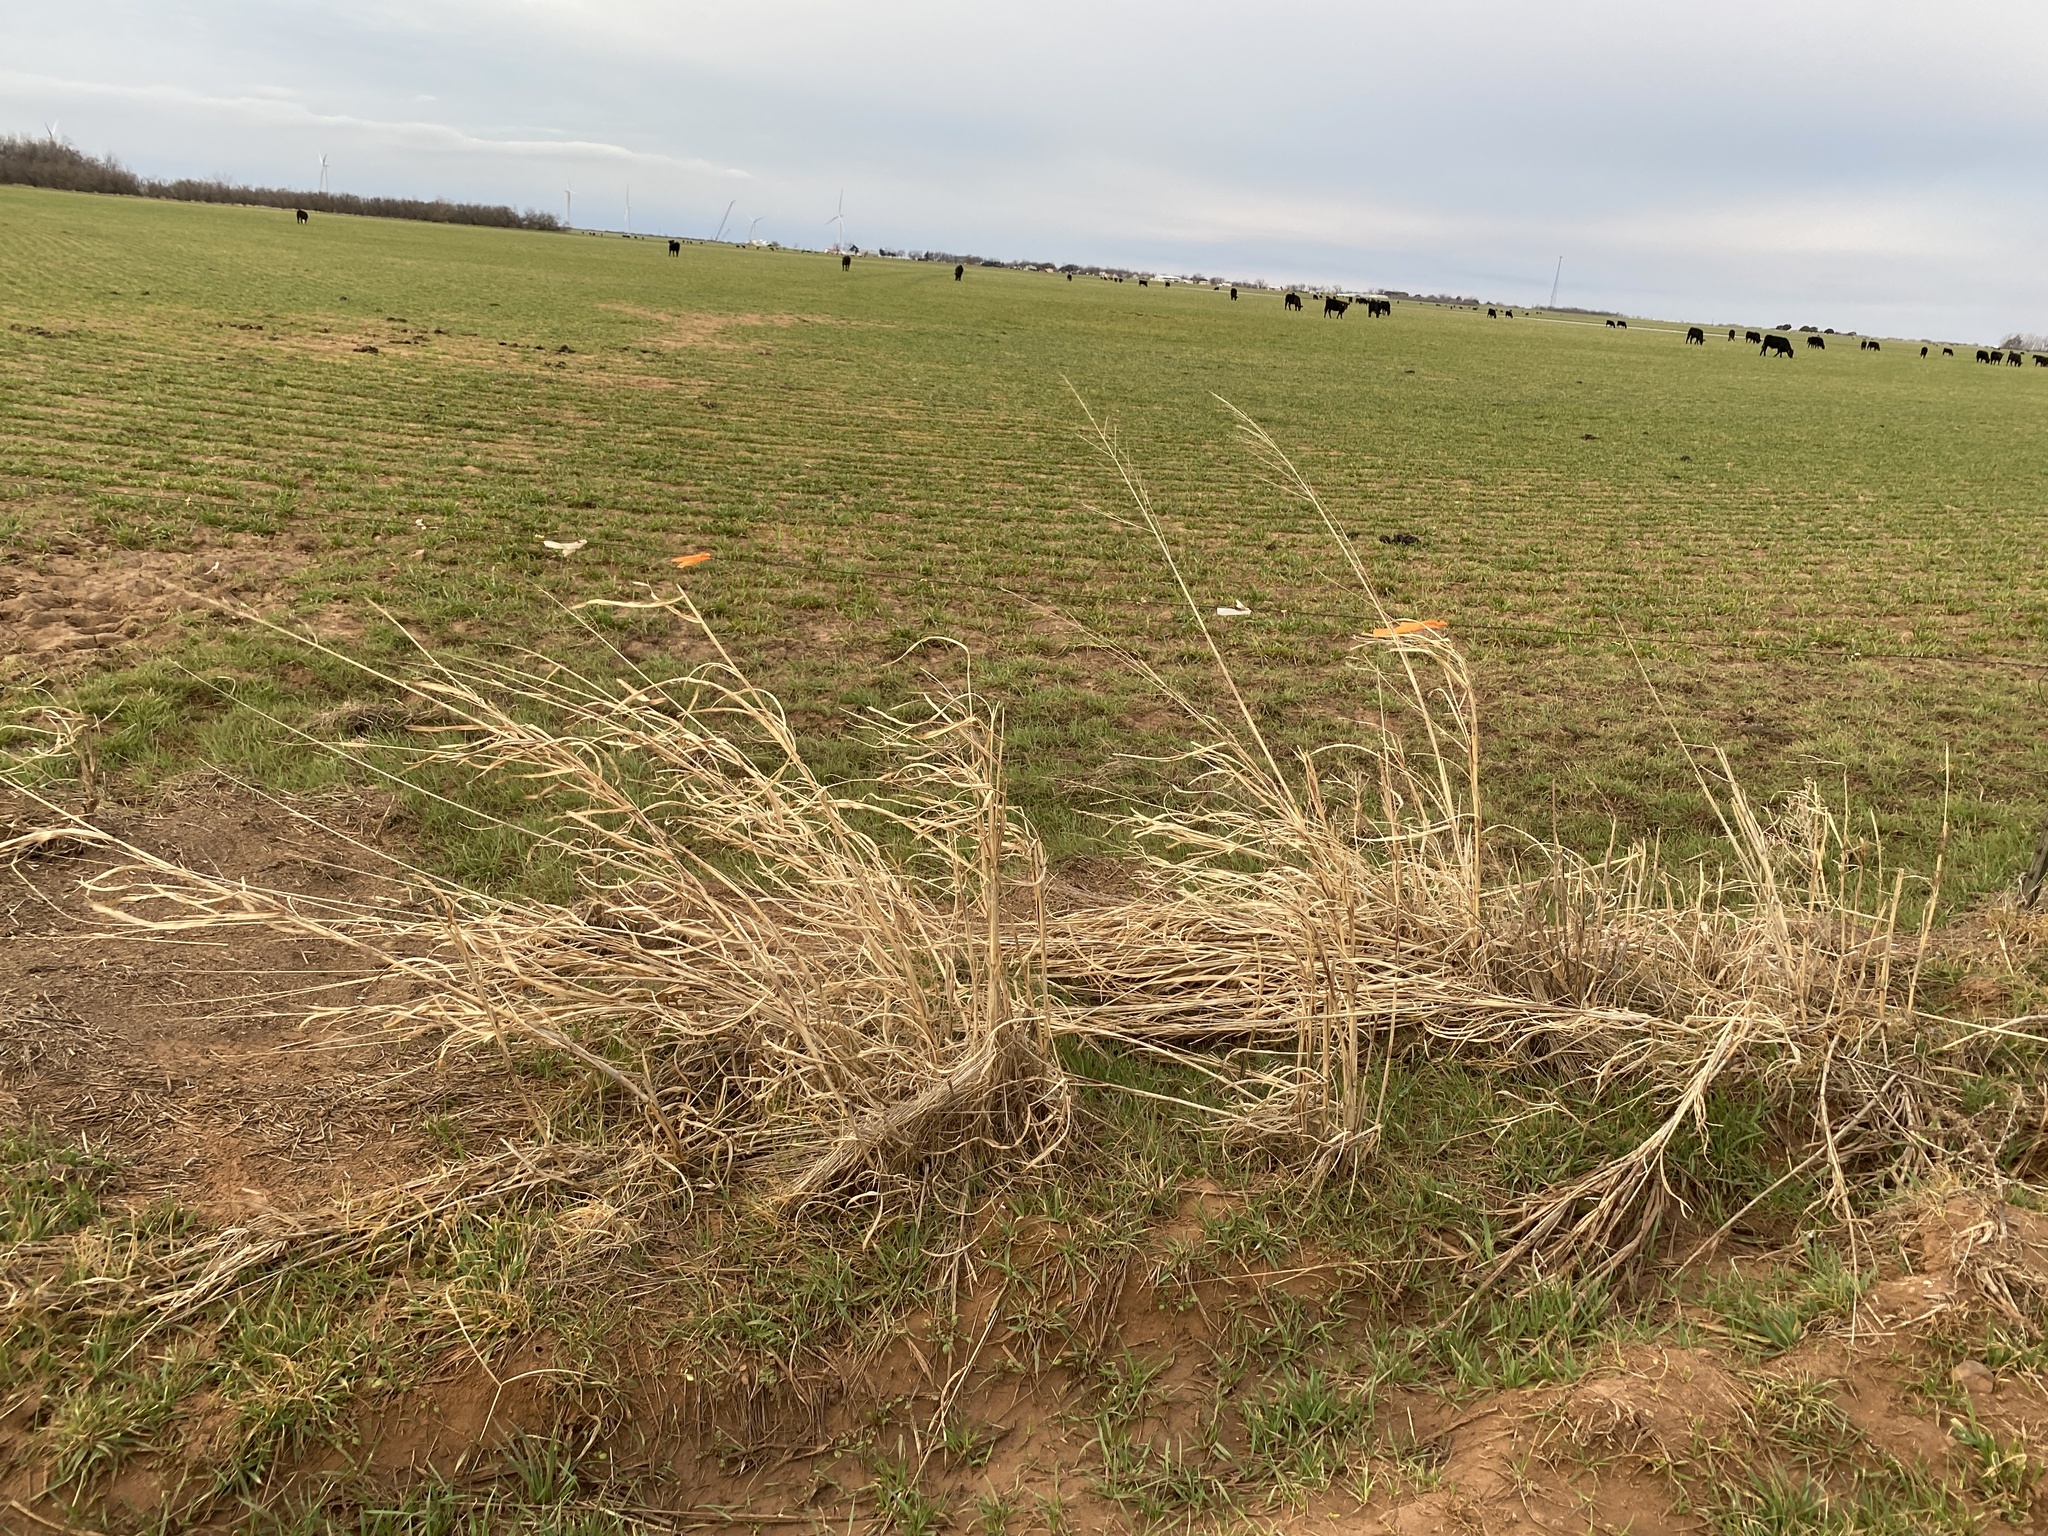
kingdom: Plantae
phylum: Tracheophyta
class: Liliopsida
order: Poales
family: Poaceae
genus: Sorghum
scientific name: Sorghum halepense
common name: Johnson-grass
